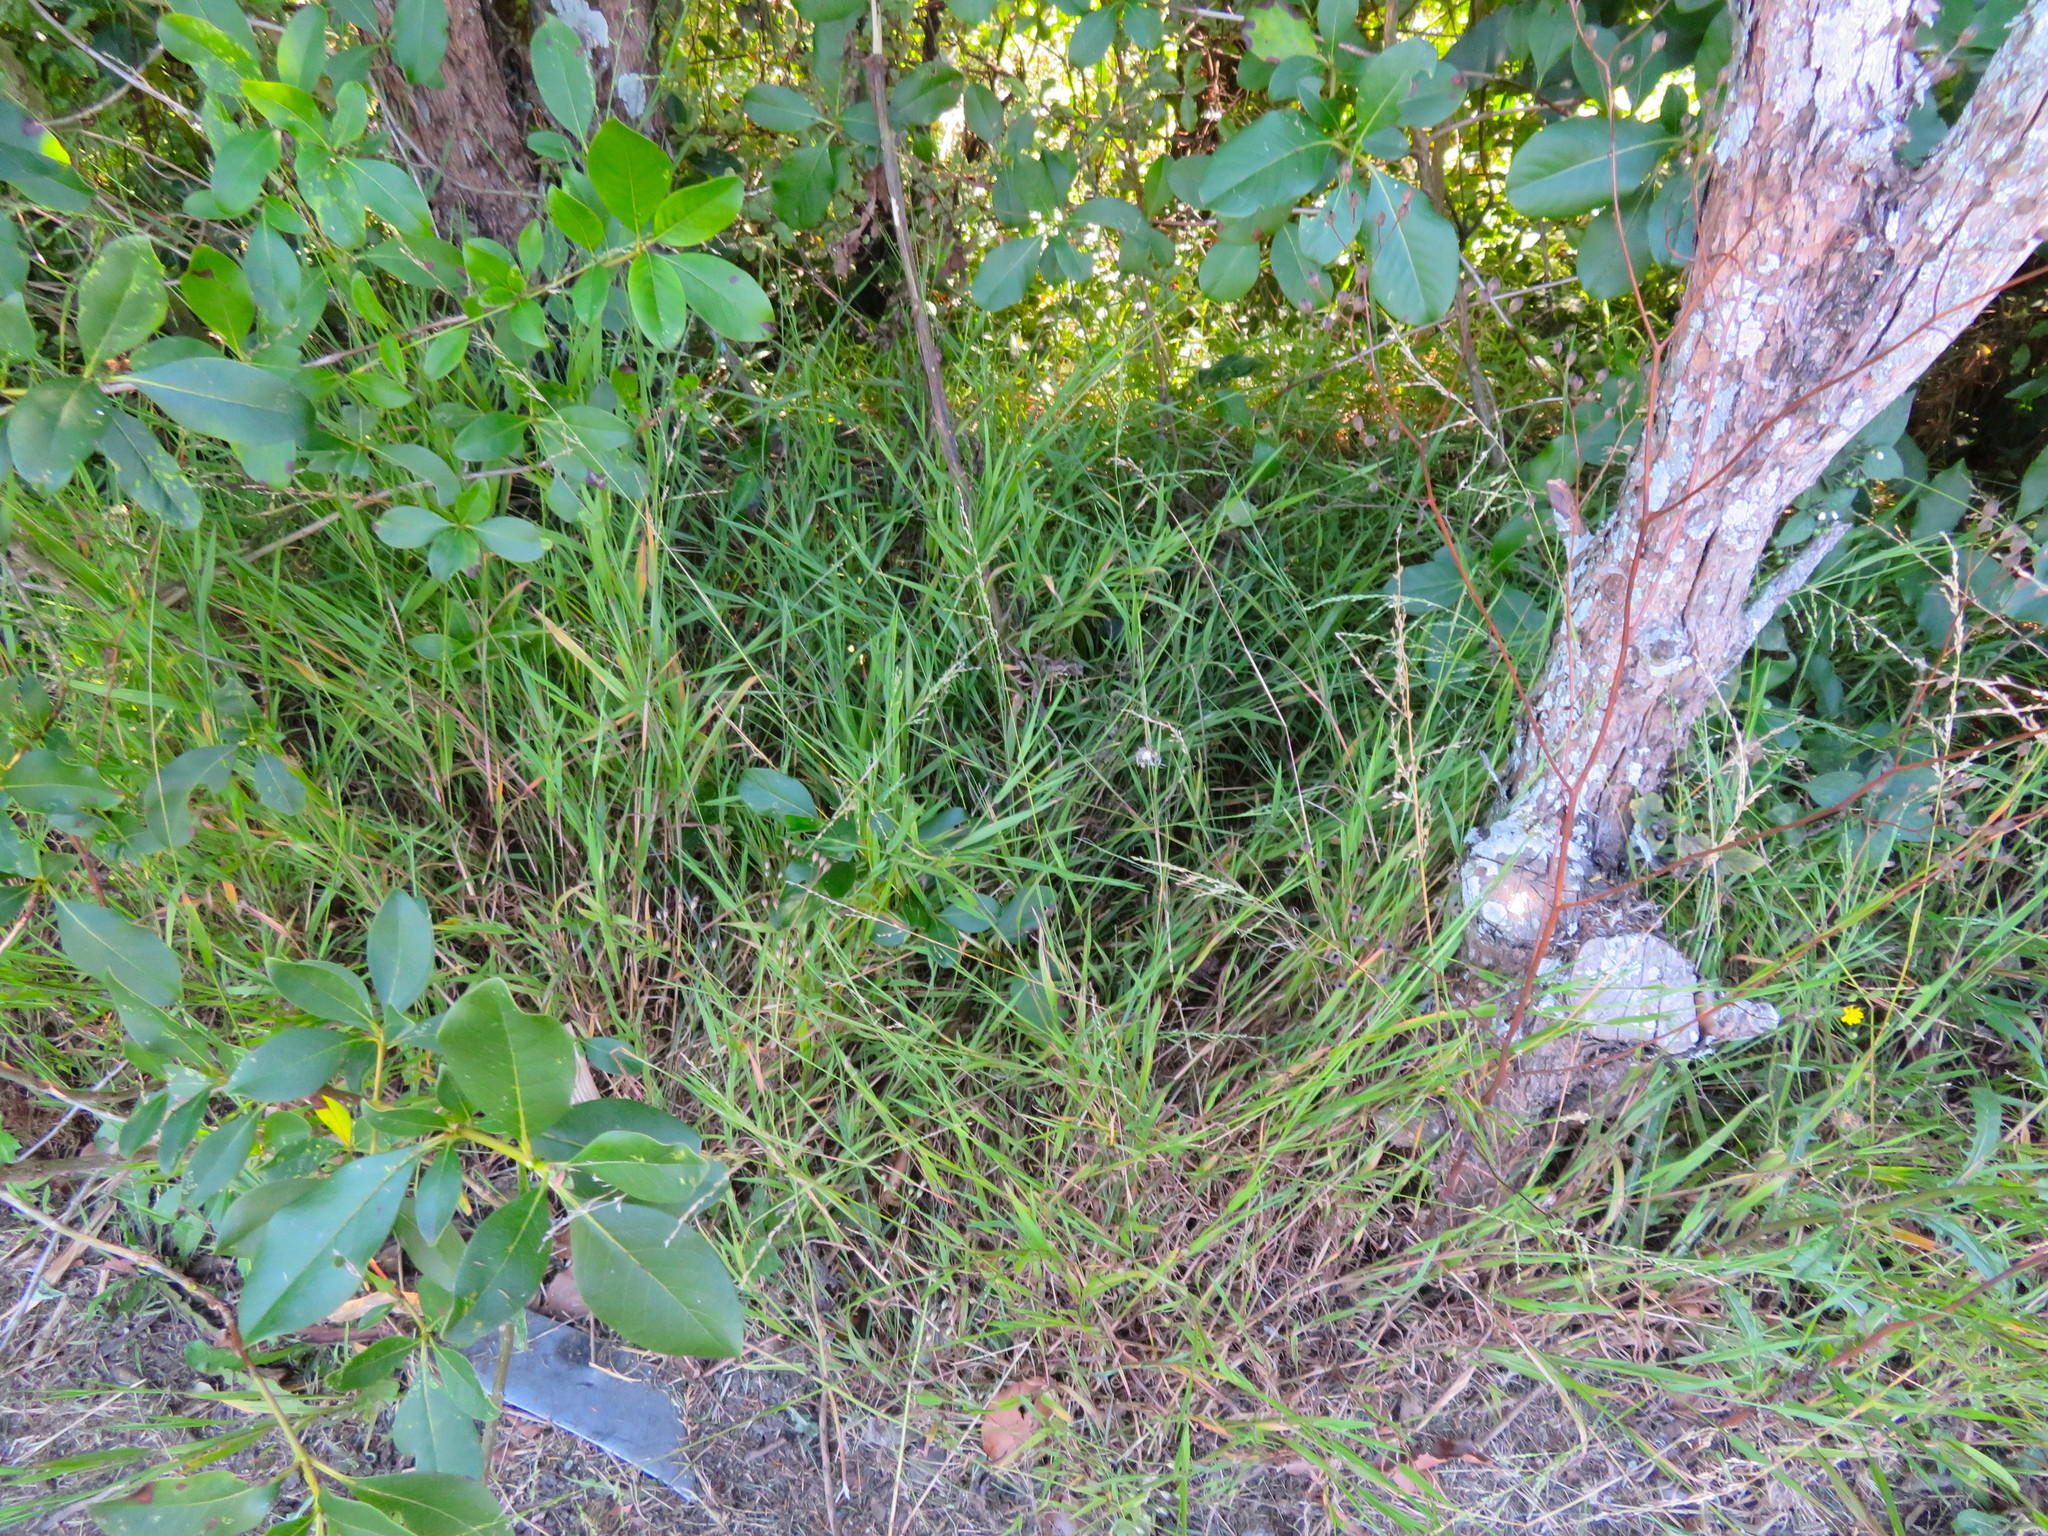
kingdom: Plantae
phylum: Tracheophyta
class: Liliopsida
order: Poales
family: Poaceae
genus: Ehrharta
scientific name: Ehrharta erecta
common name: Panic veldtgrass
